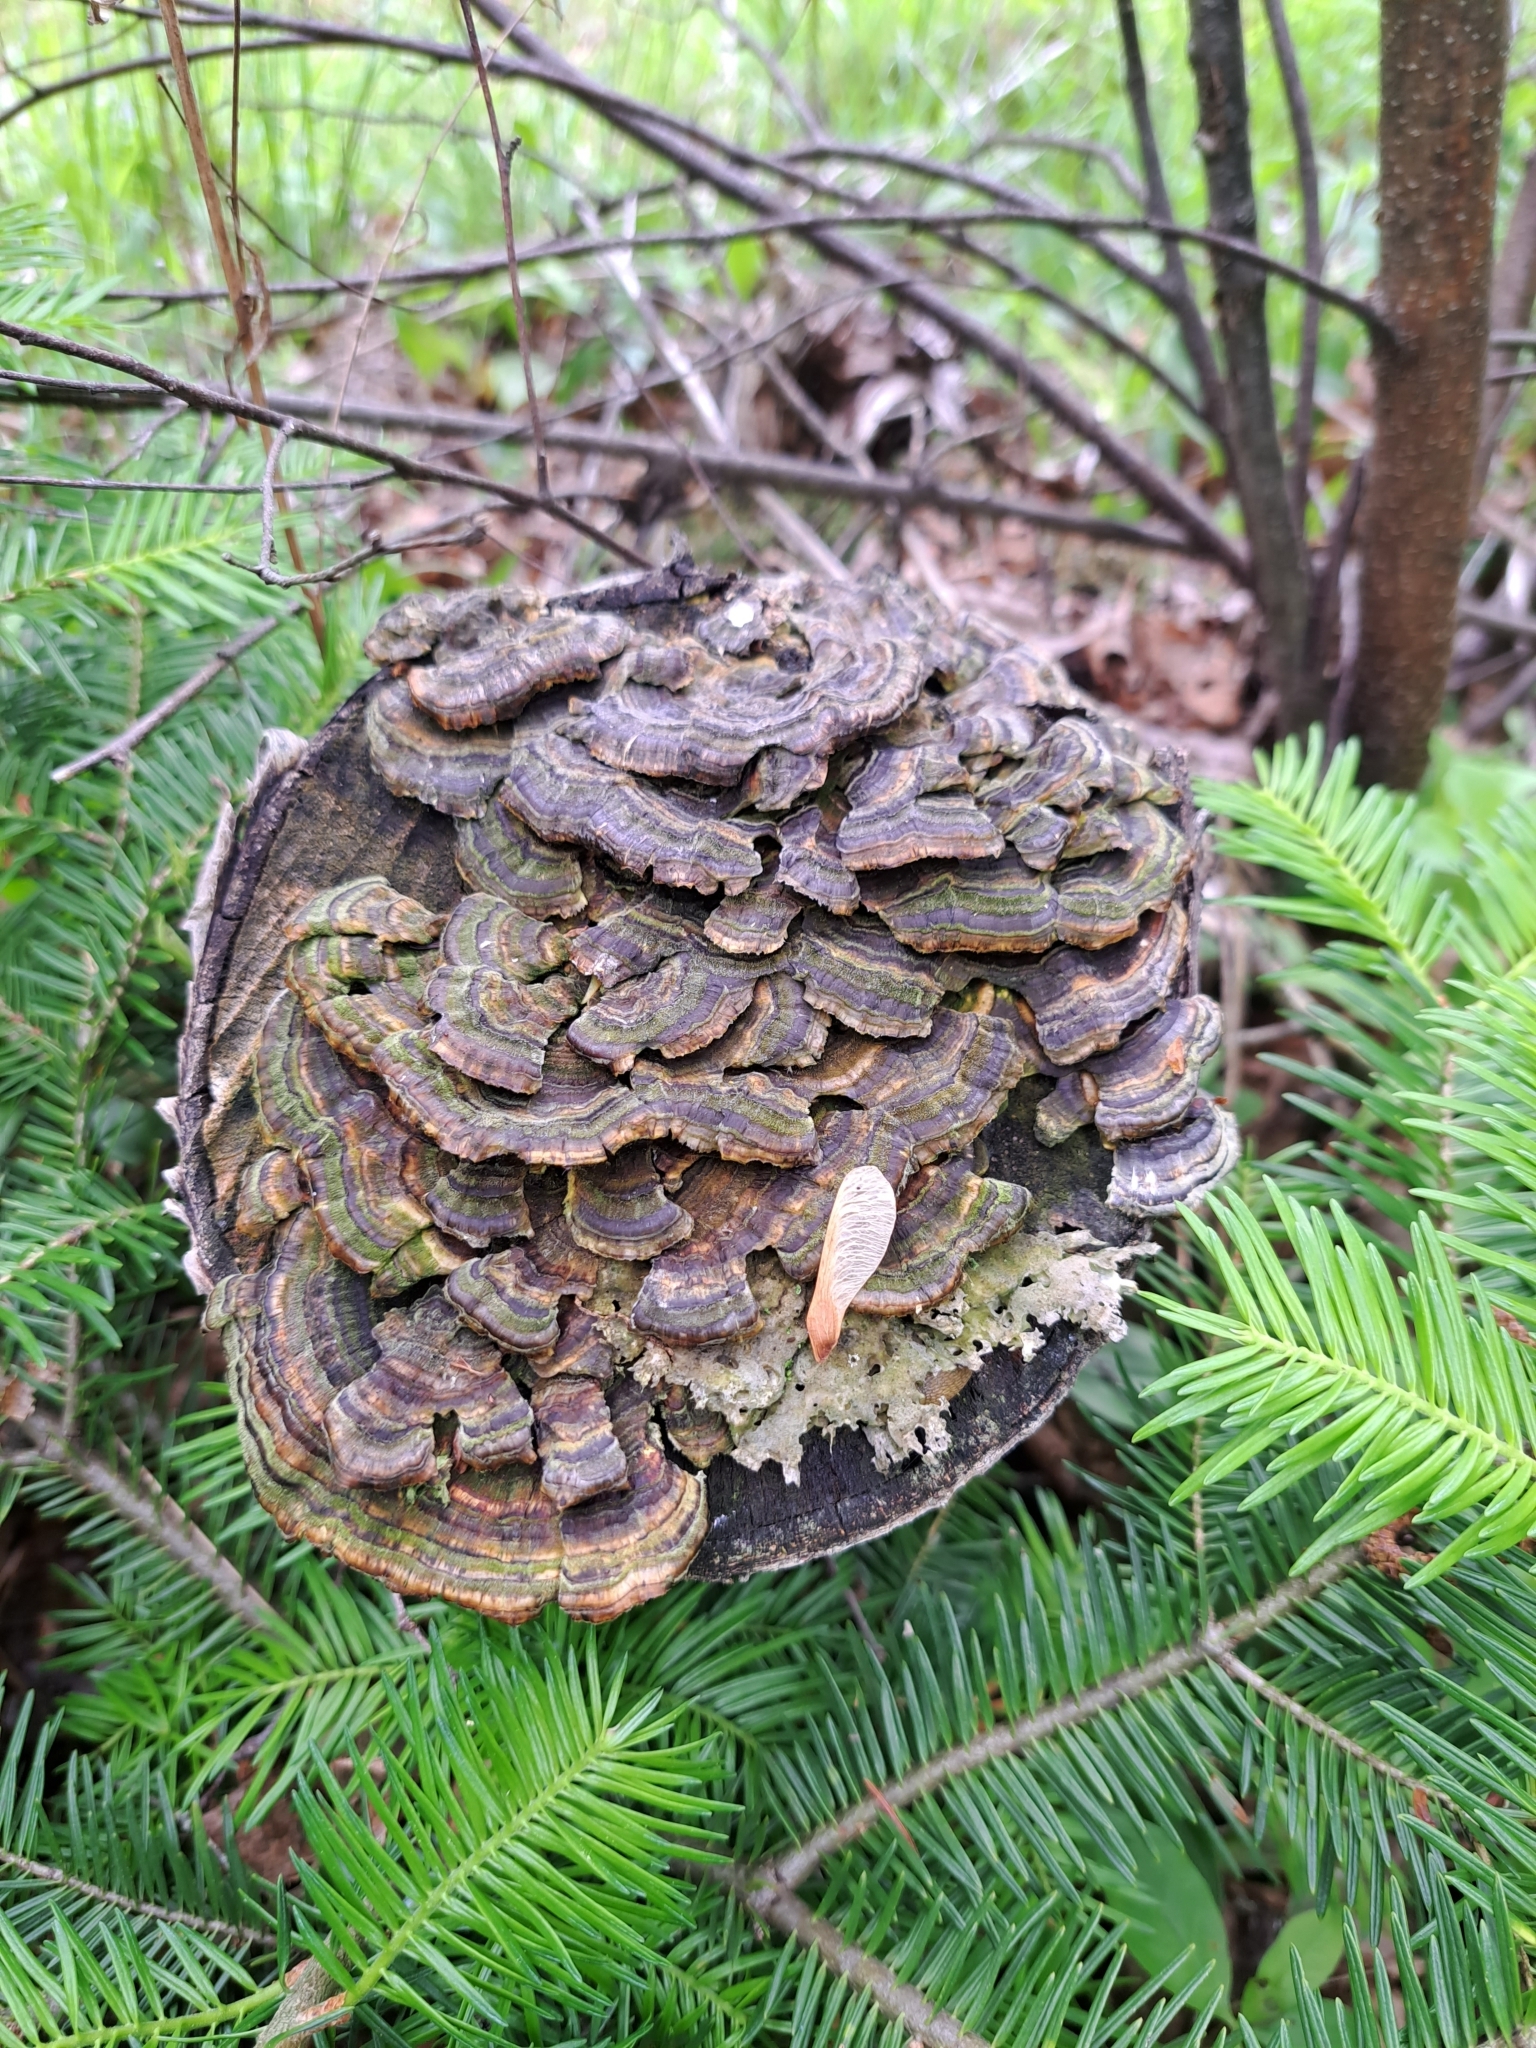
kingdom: Fungi
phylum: Basidiomycota
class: Agaricomycetes
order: Polyporales
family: Polyporaceae
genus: Trametes
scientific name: Trametes versicolor
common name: Turkeytail
